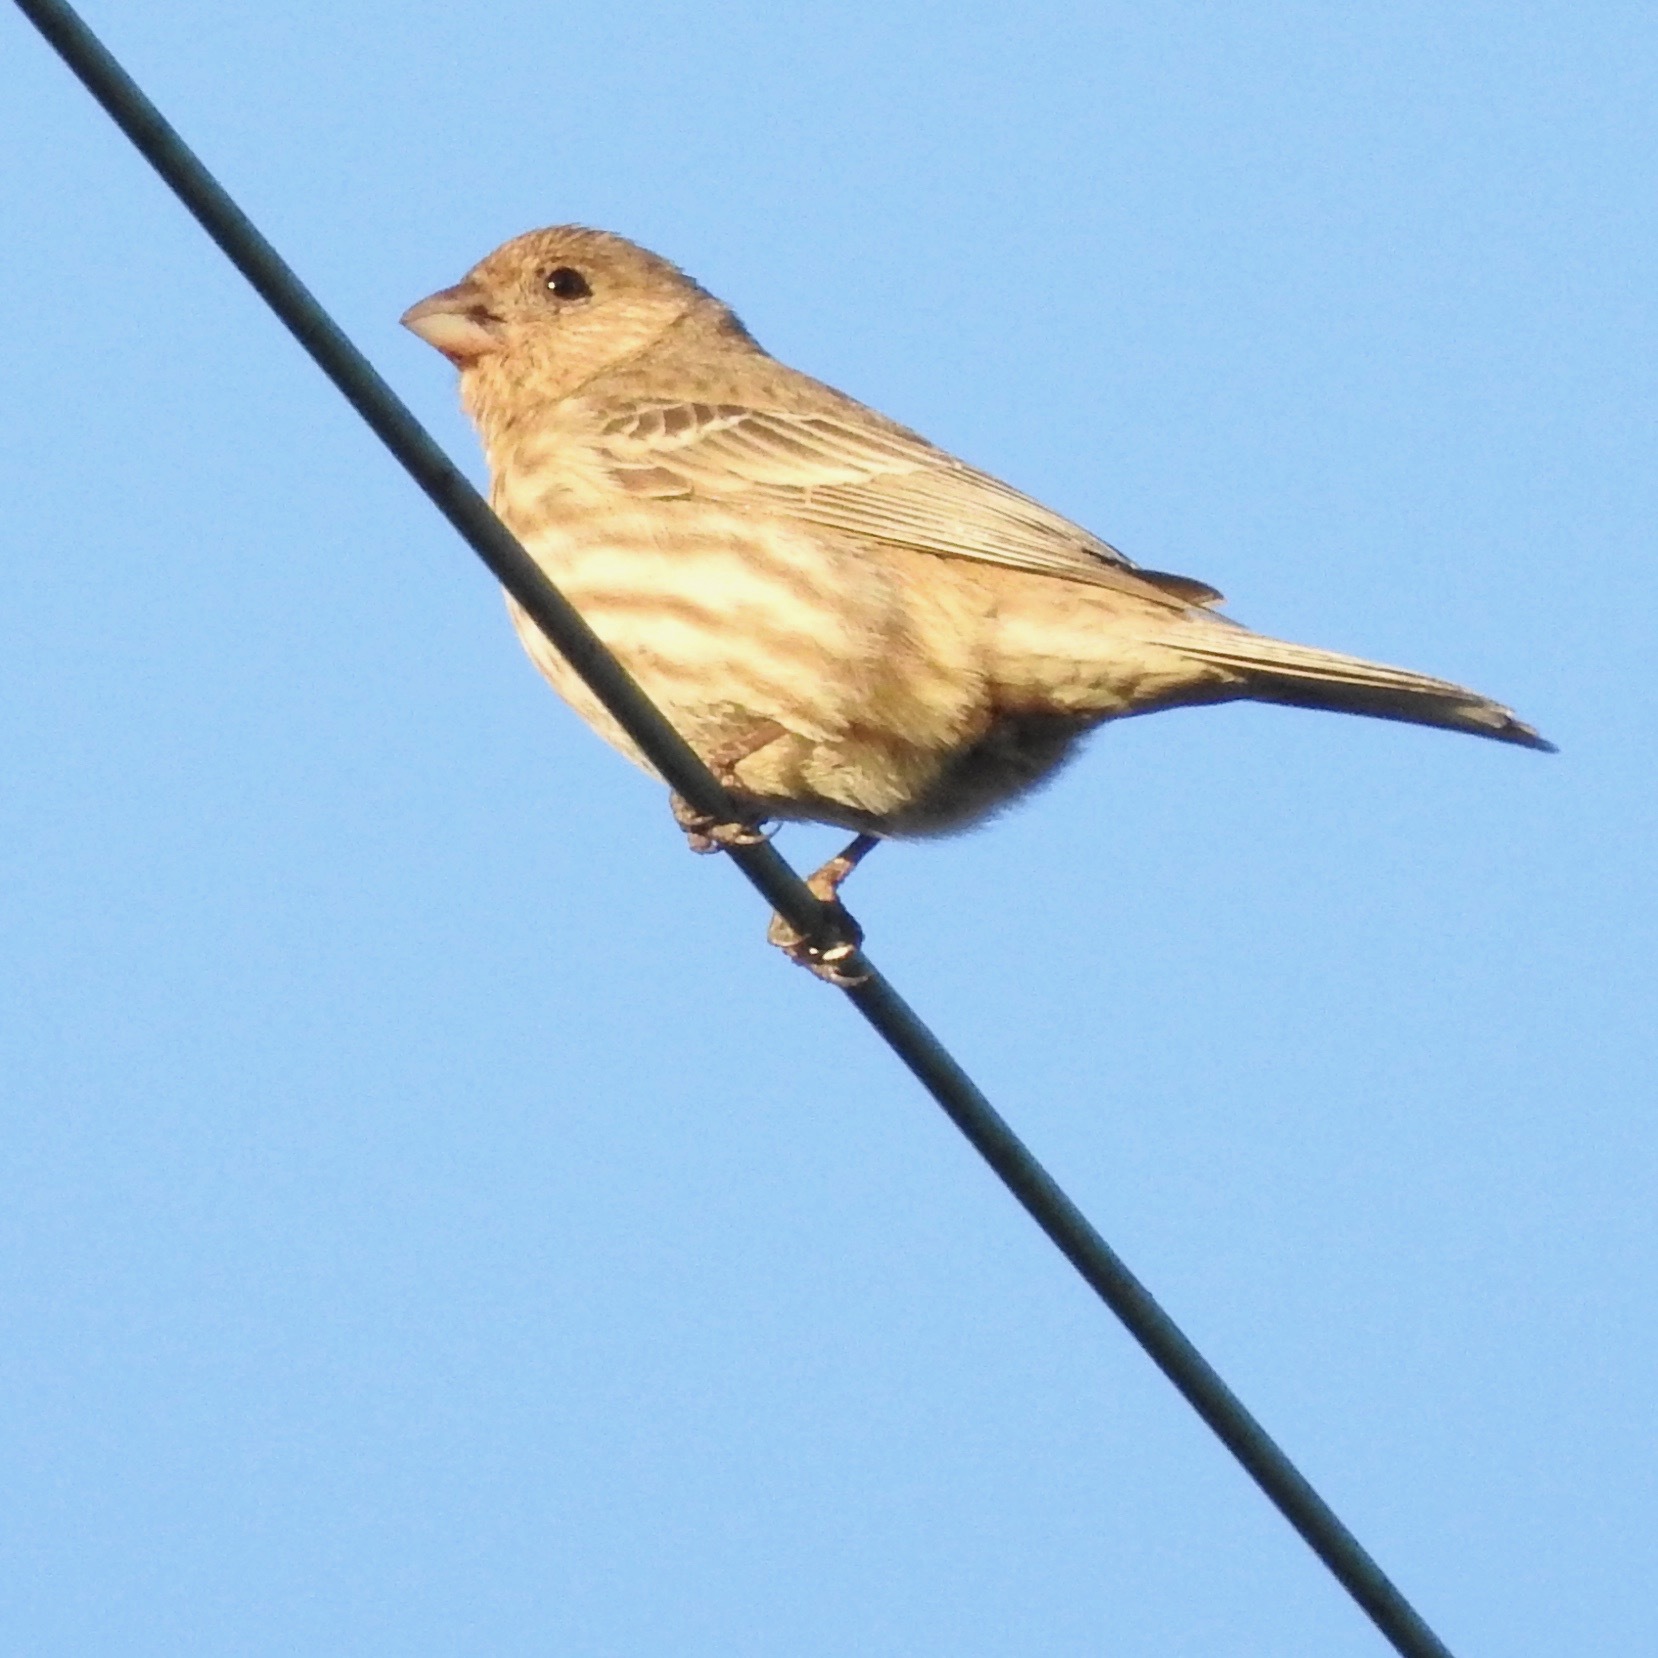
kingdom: Animalia
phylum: Chordata
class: Aves
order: Passeriformes
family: Fringillidae
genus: Haemorhous
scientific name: Haemorhous mexicanus
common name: House finch
